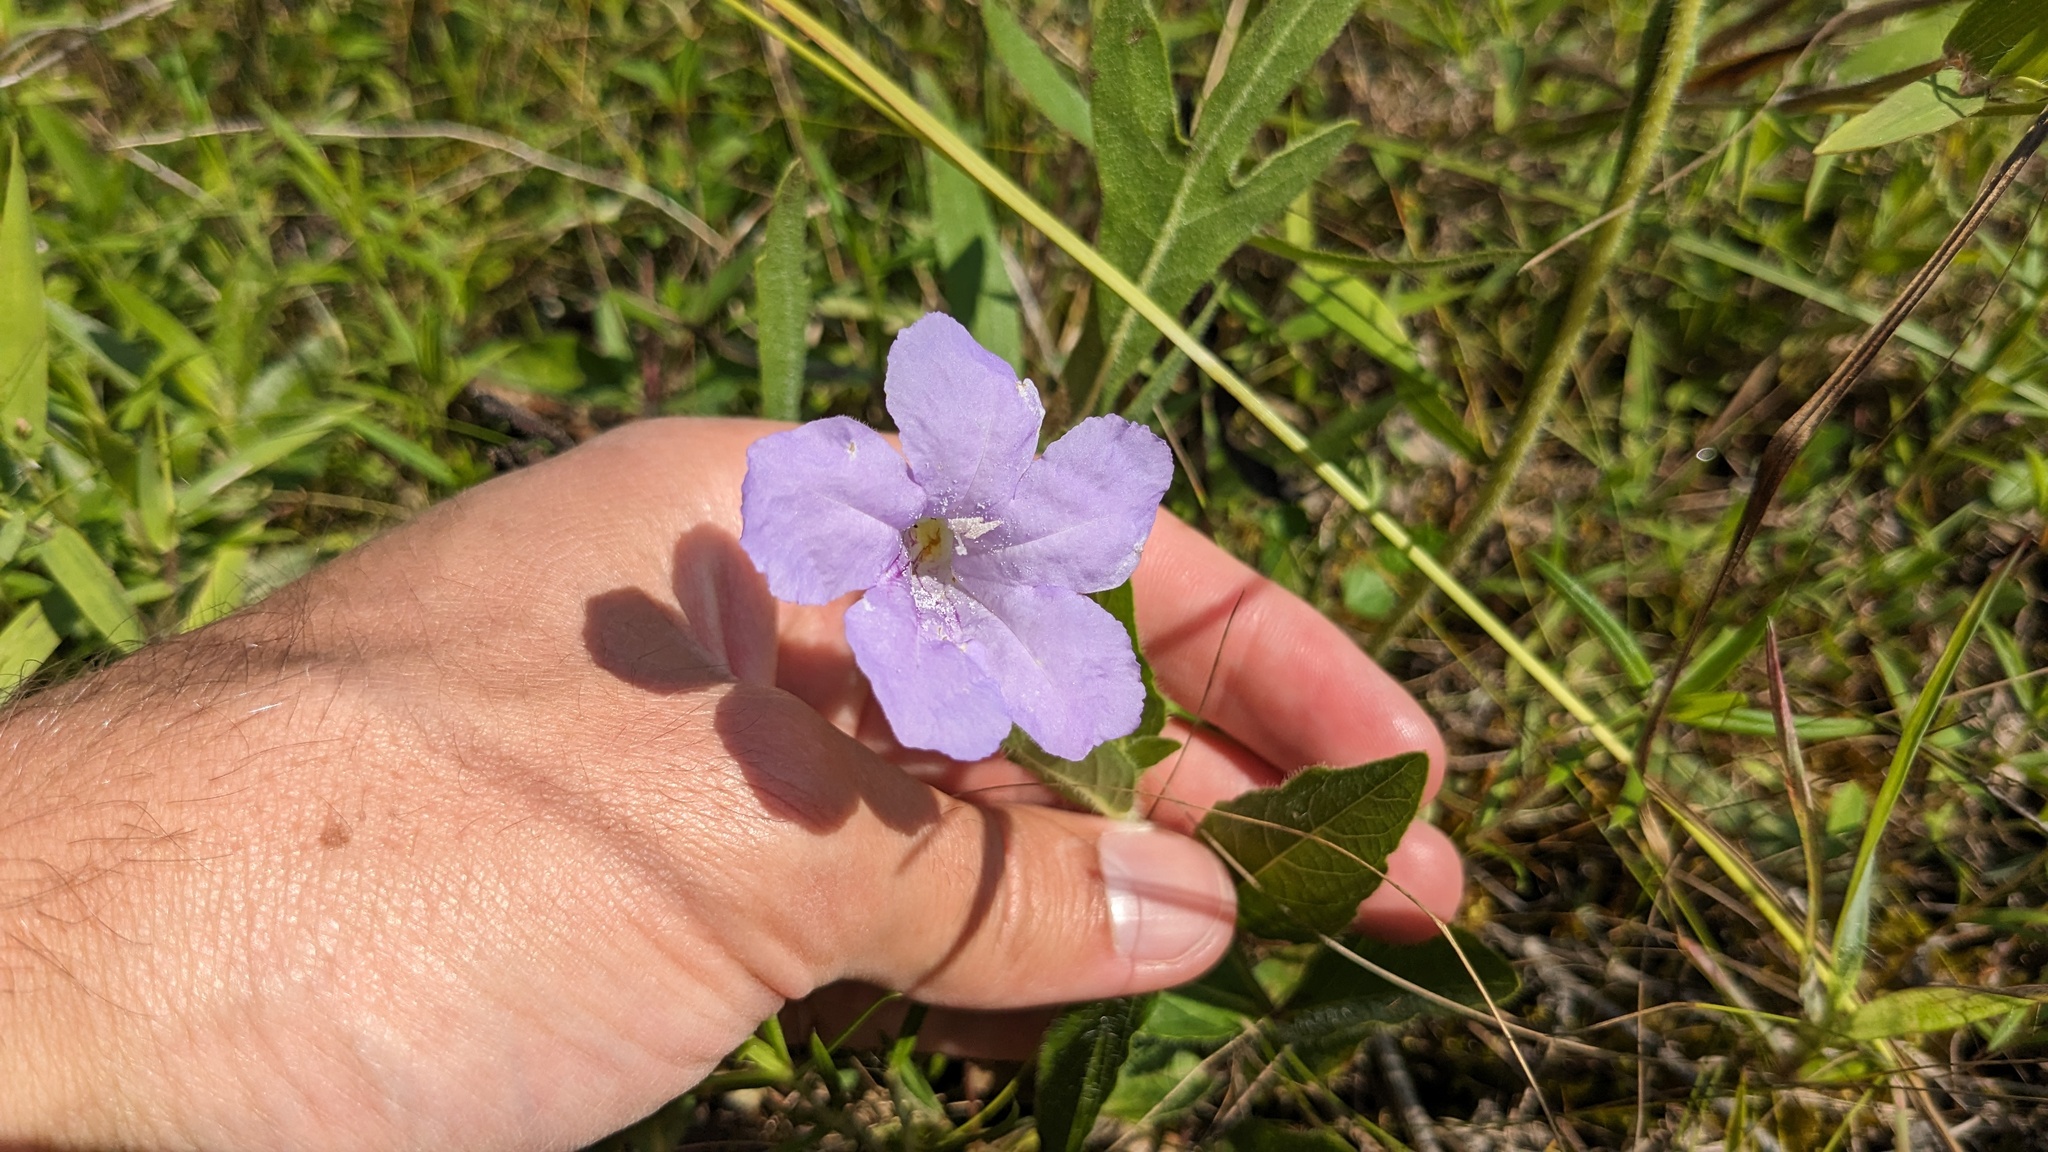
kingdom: Plantae
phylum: Tracheophyta
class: Magnoliopsida
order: Lamiales
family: Acanthaceae
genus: Ruellia
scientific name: Ruellia humilis
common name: Fringe-leaf ruellia
